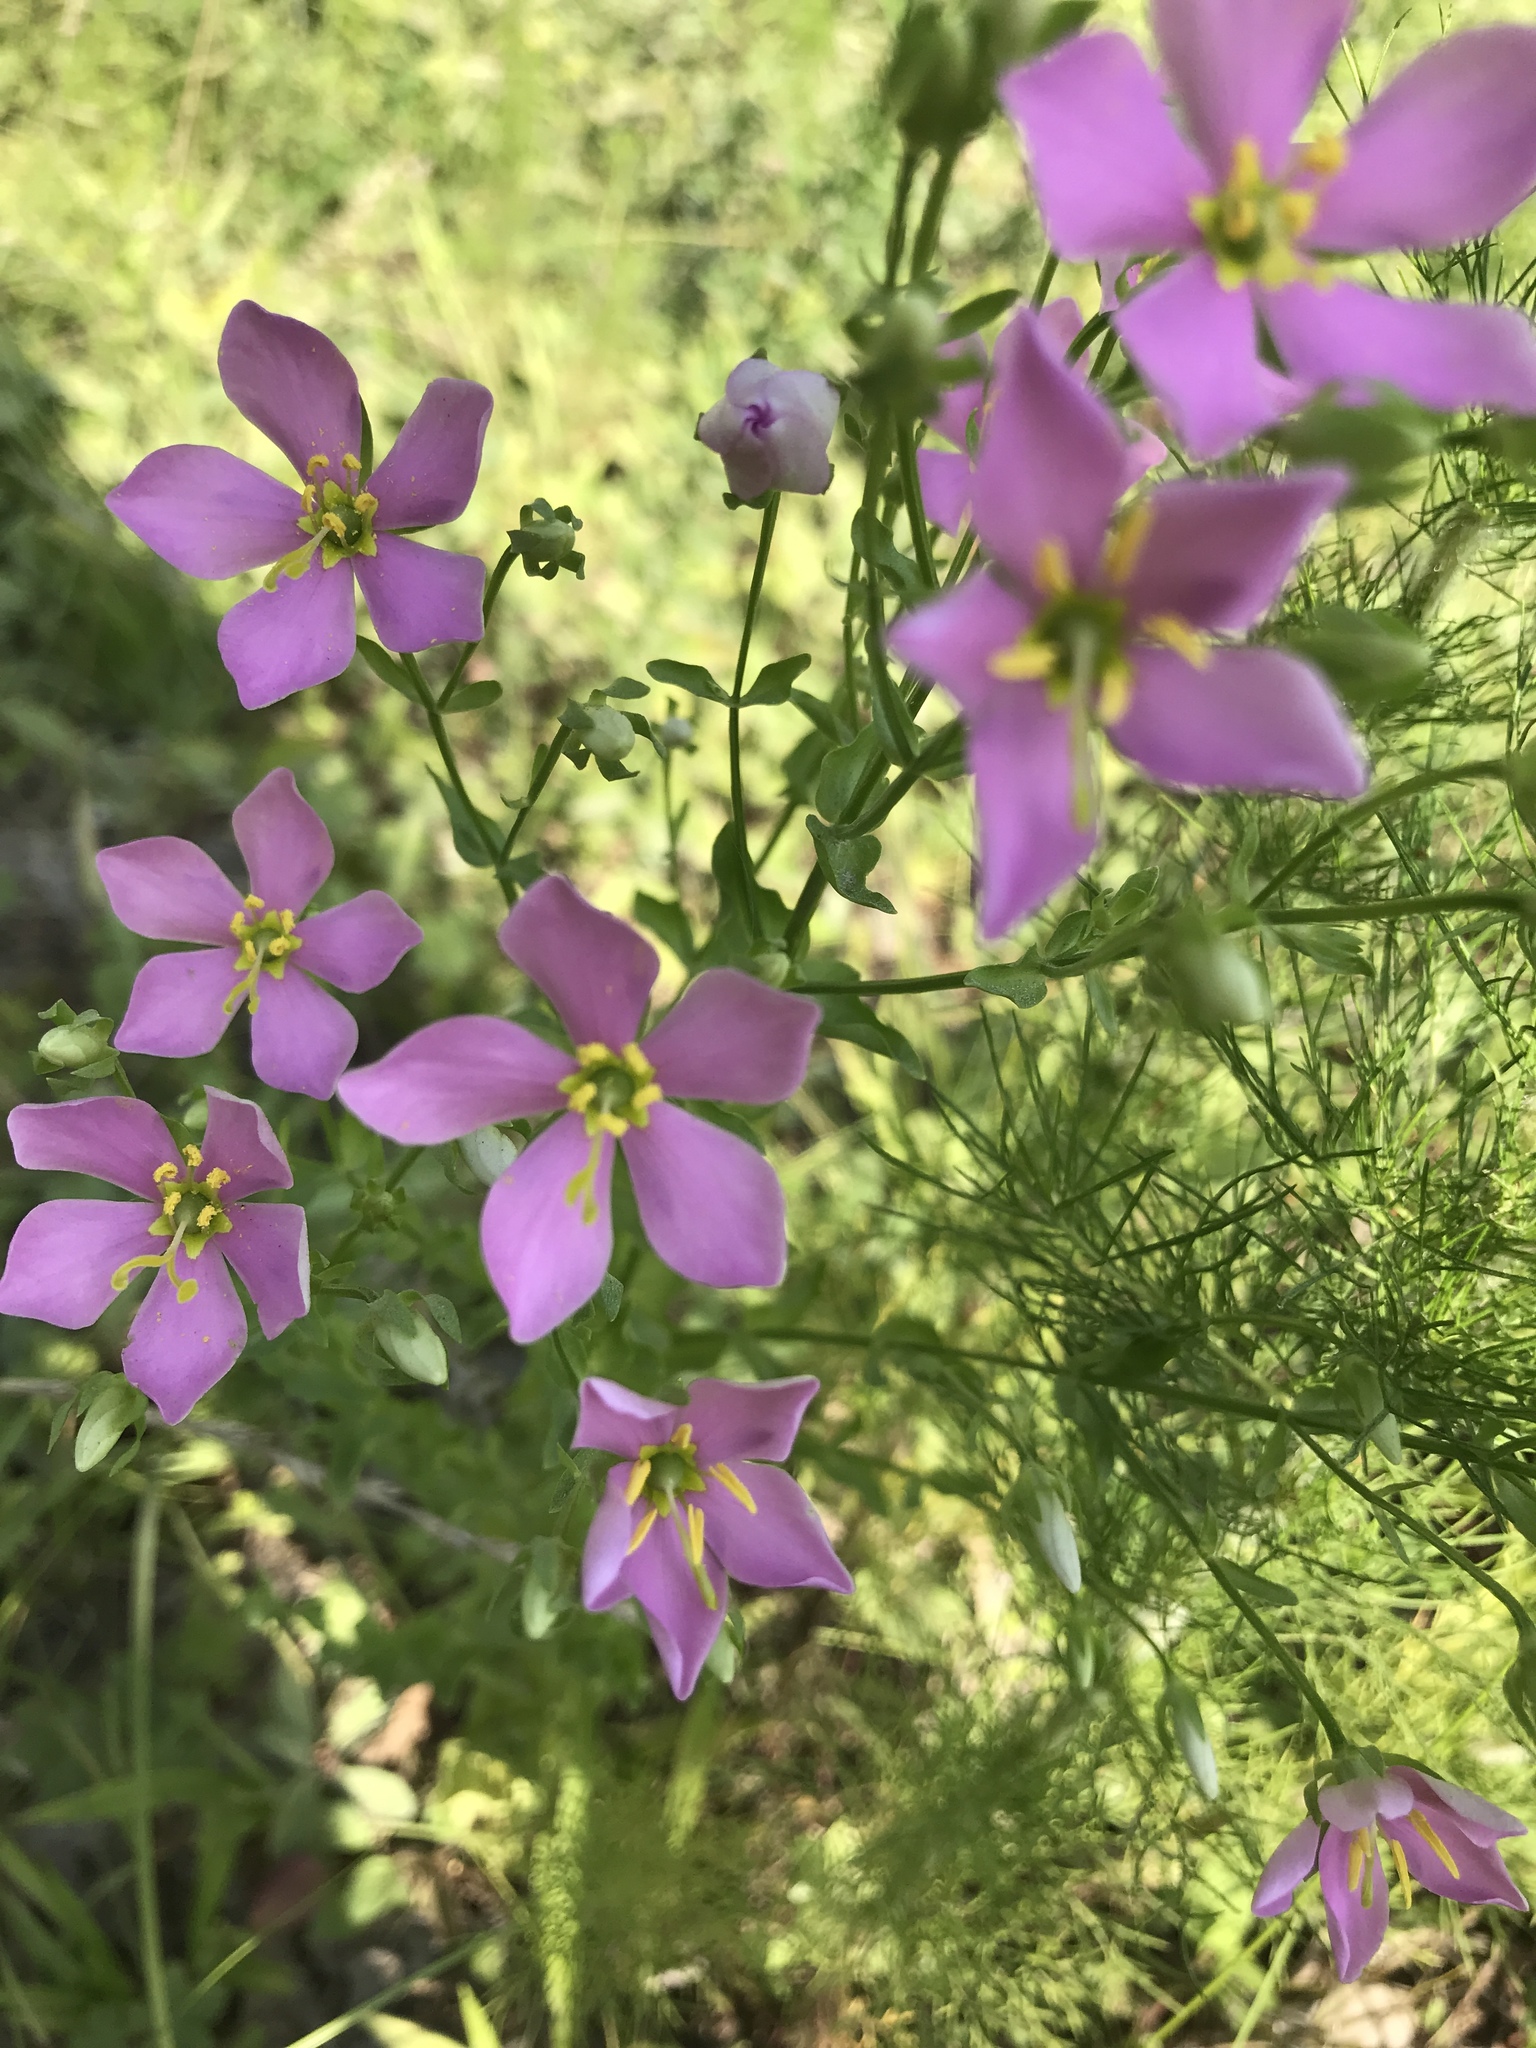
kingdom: Plantae
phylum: Tracheophyta
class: Magnoliopsida
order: Gentianales
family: Gentianaceae
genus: Sabatia
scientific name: Sabatia angularis
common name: Rose-pink
